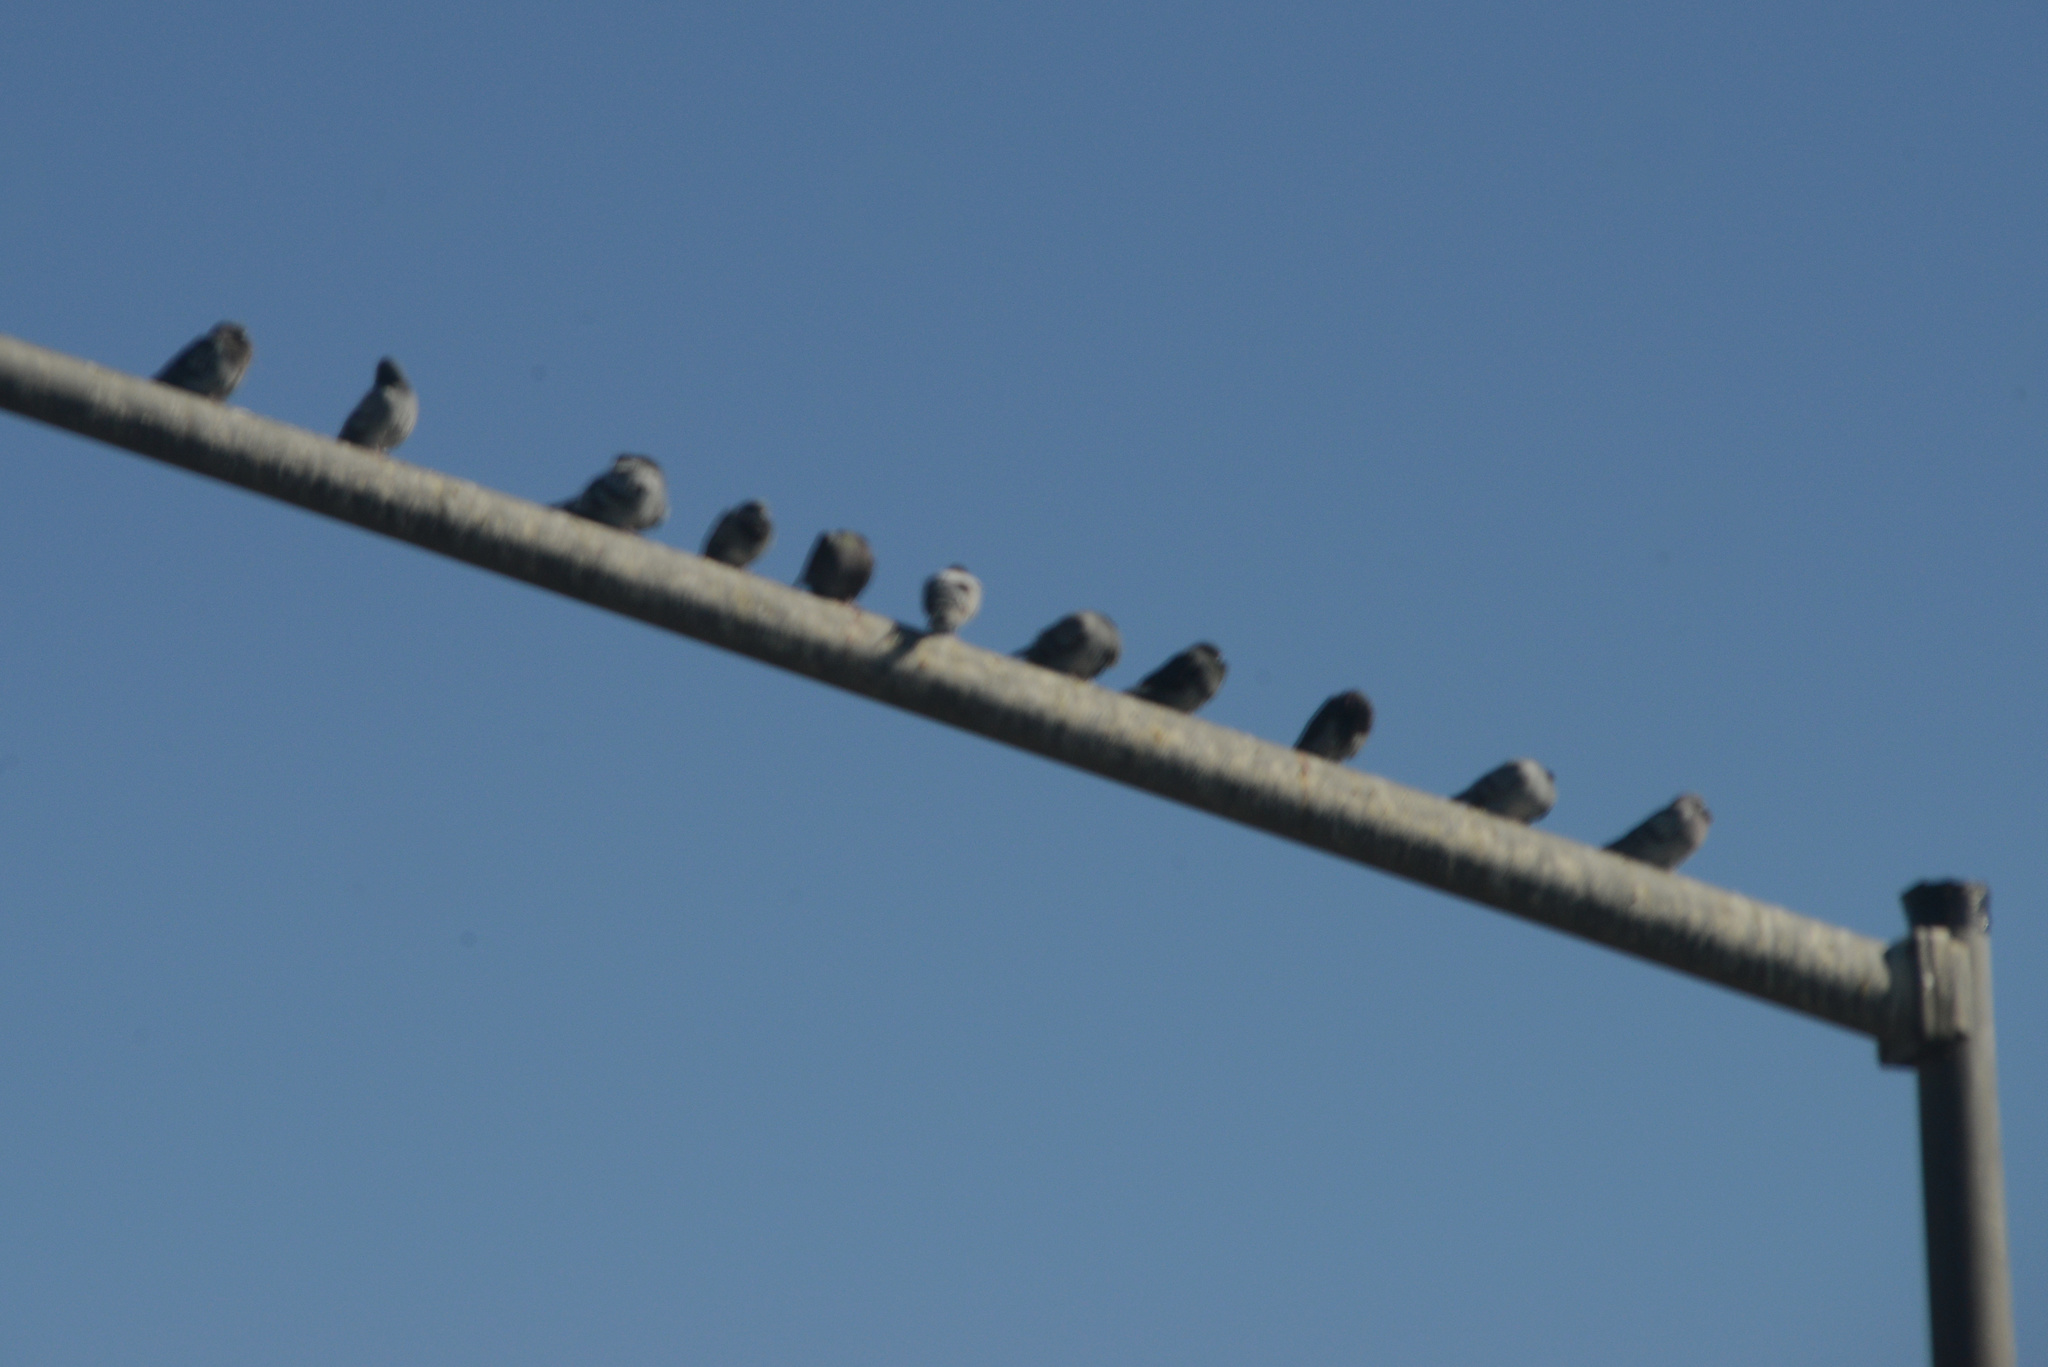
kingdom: Animalia
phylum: Chordata
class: Aves
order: Columbiformes
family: Columbidae
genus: Columba
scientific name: Columba livia
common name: Rock pigeon
